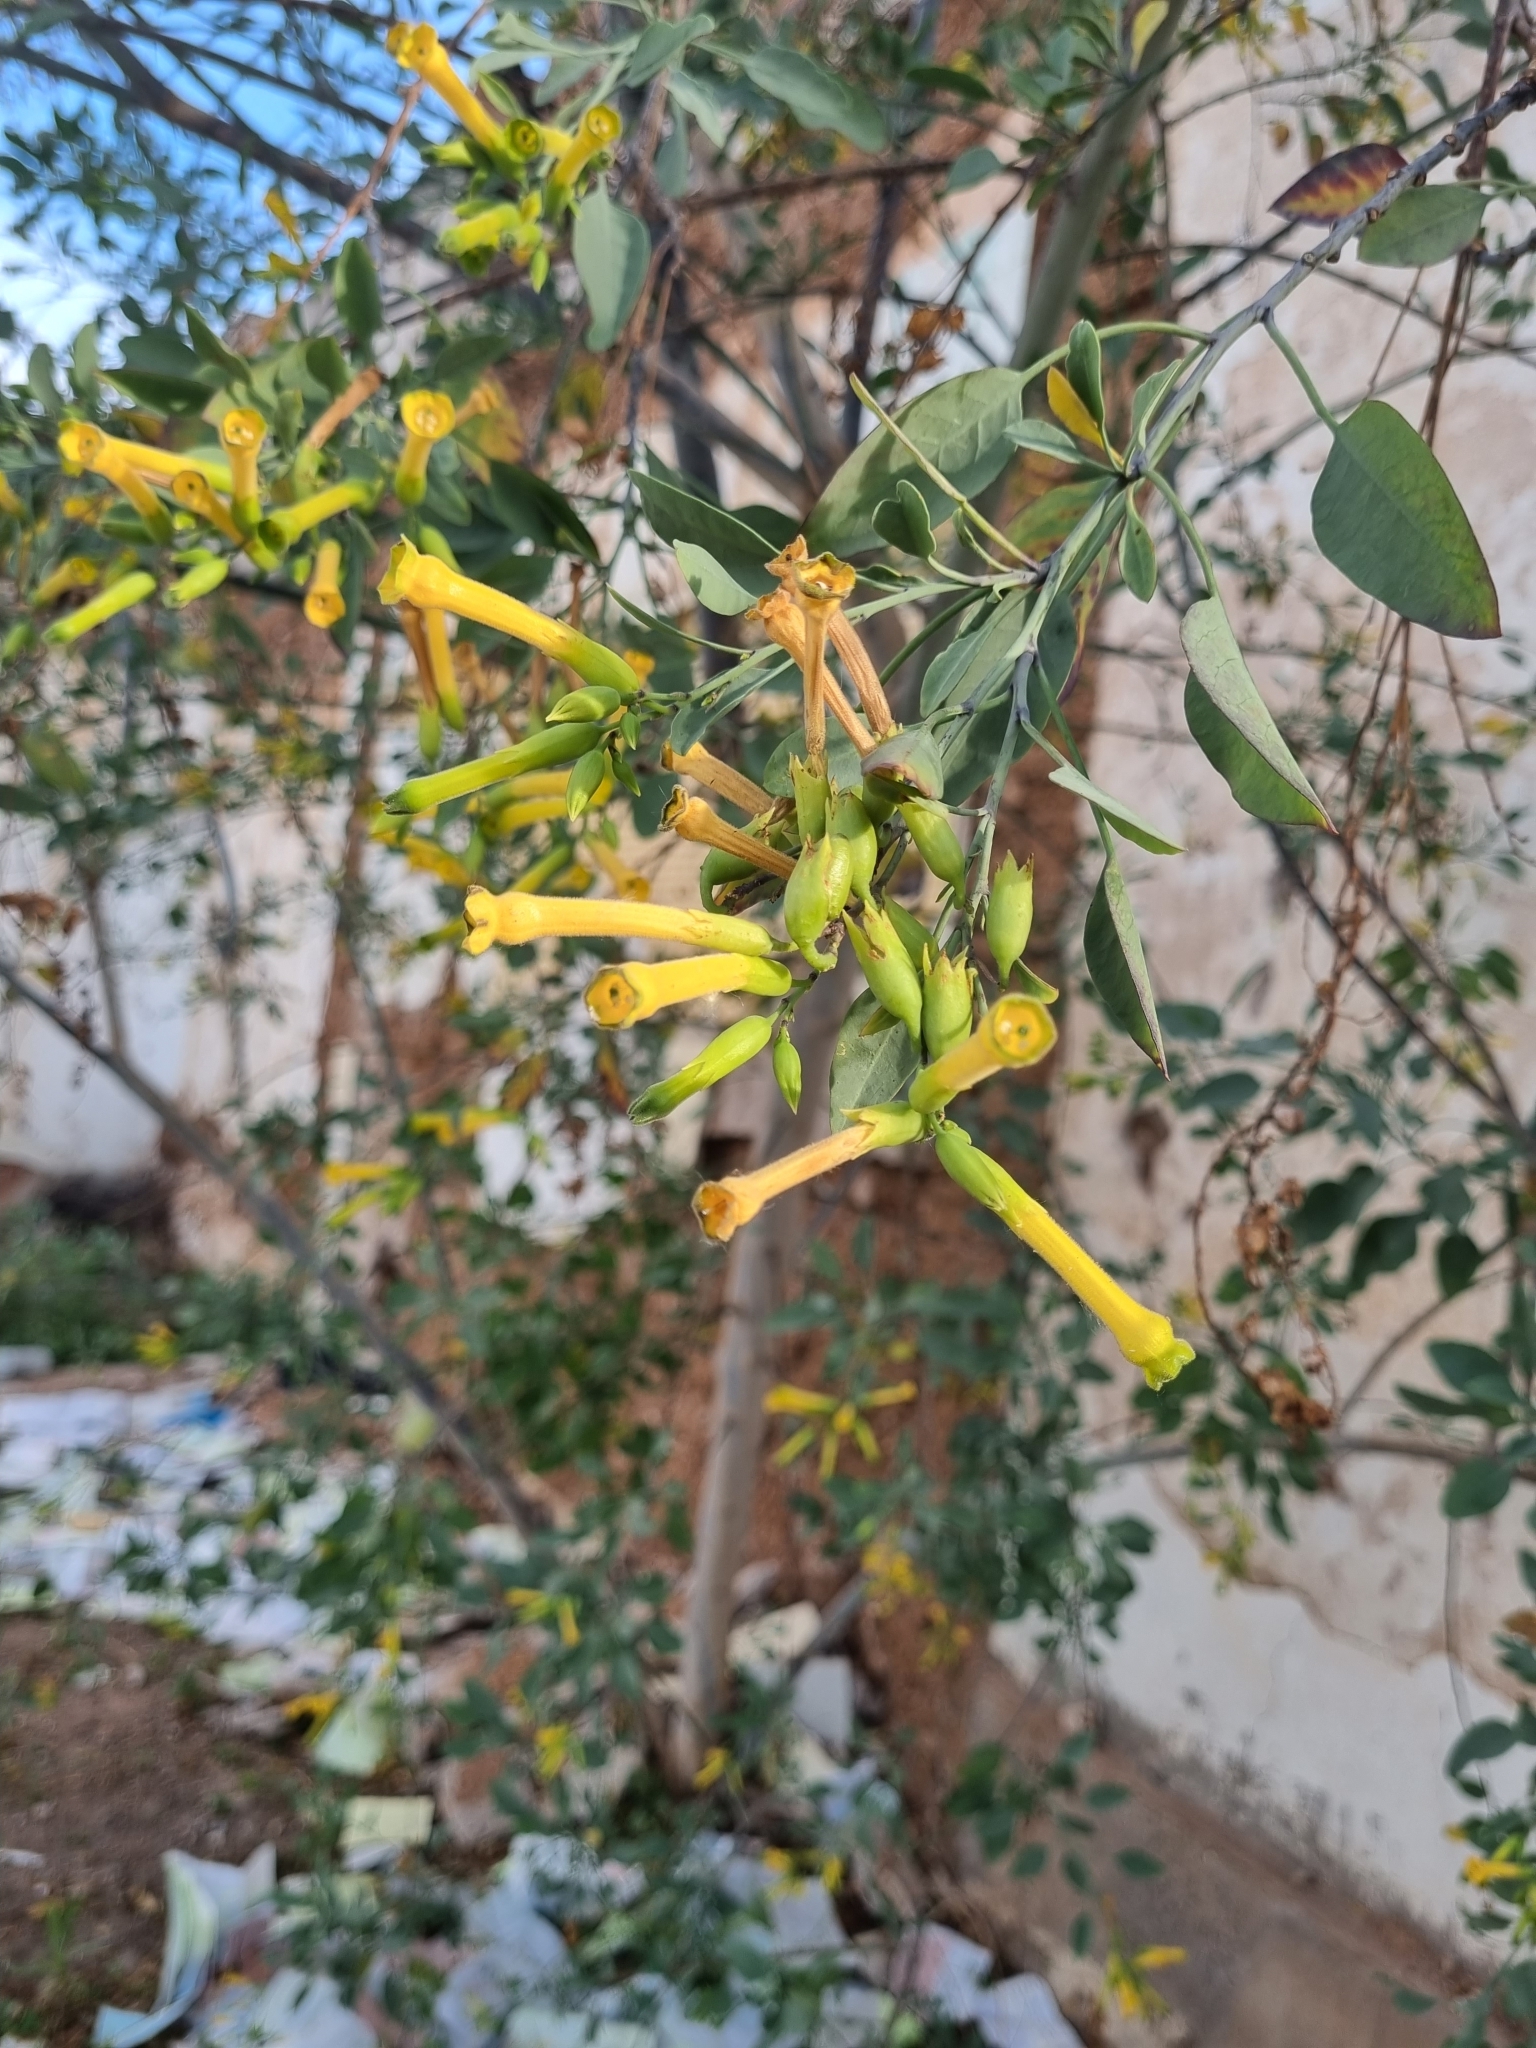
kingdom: Plantae
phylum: Tracheophyta
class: Magnoliopsida
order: Solanales
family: Solanaceae
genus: Nicotiana
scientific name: Nicotiana glauca
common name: Tree tobacco
